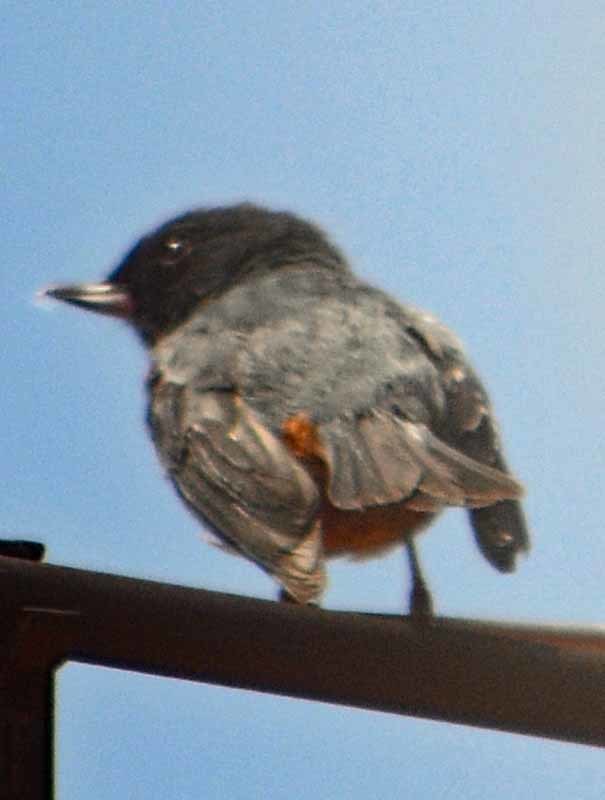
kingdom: Animalia
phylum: Chordata
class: Aves
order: Passeriformes
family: Thraupidae
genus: Diglossa
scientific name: Diglossa baritula
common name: Cinnamon-bellied flowerpiercer
